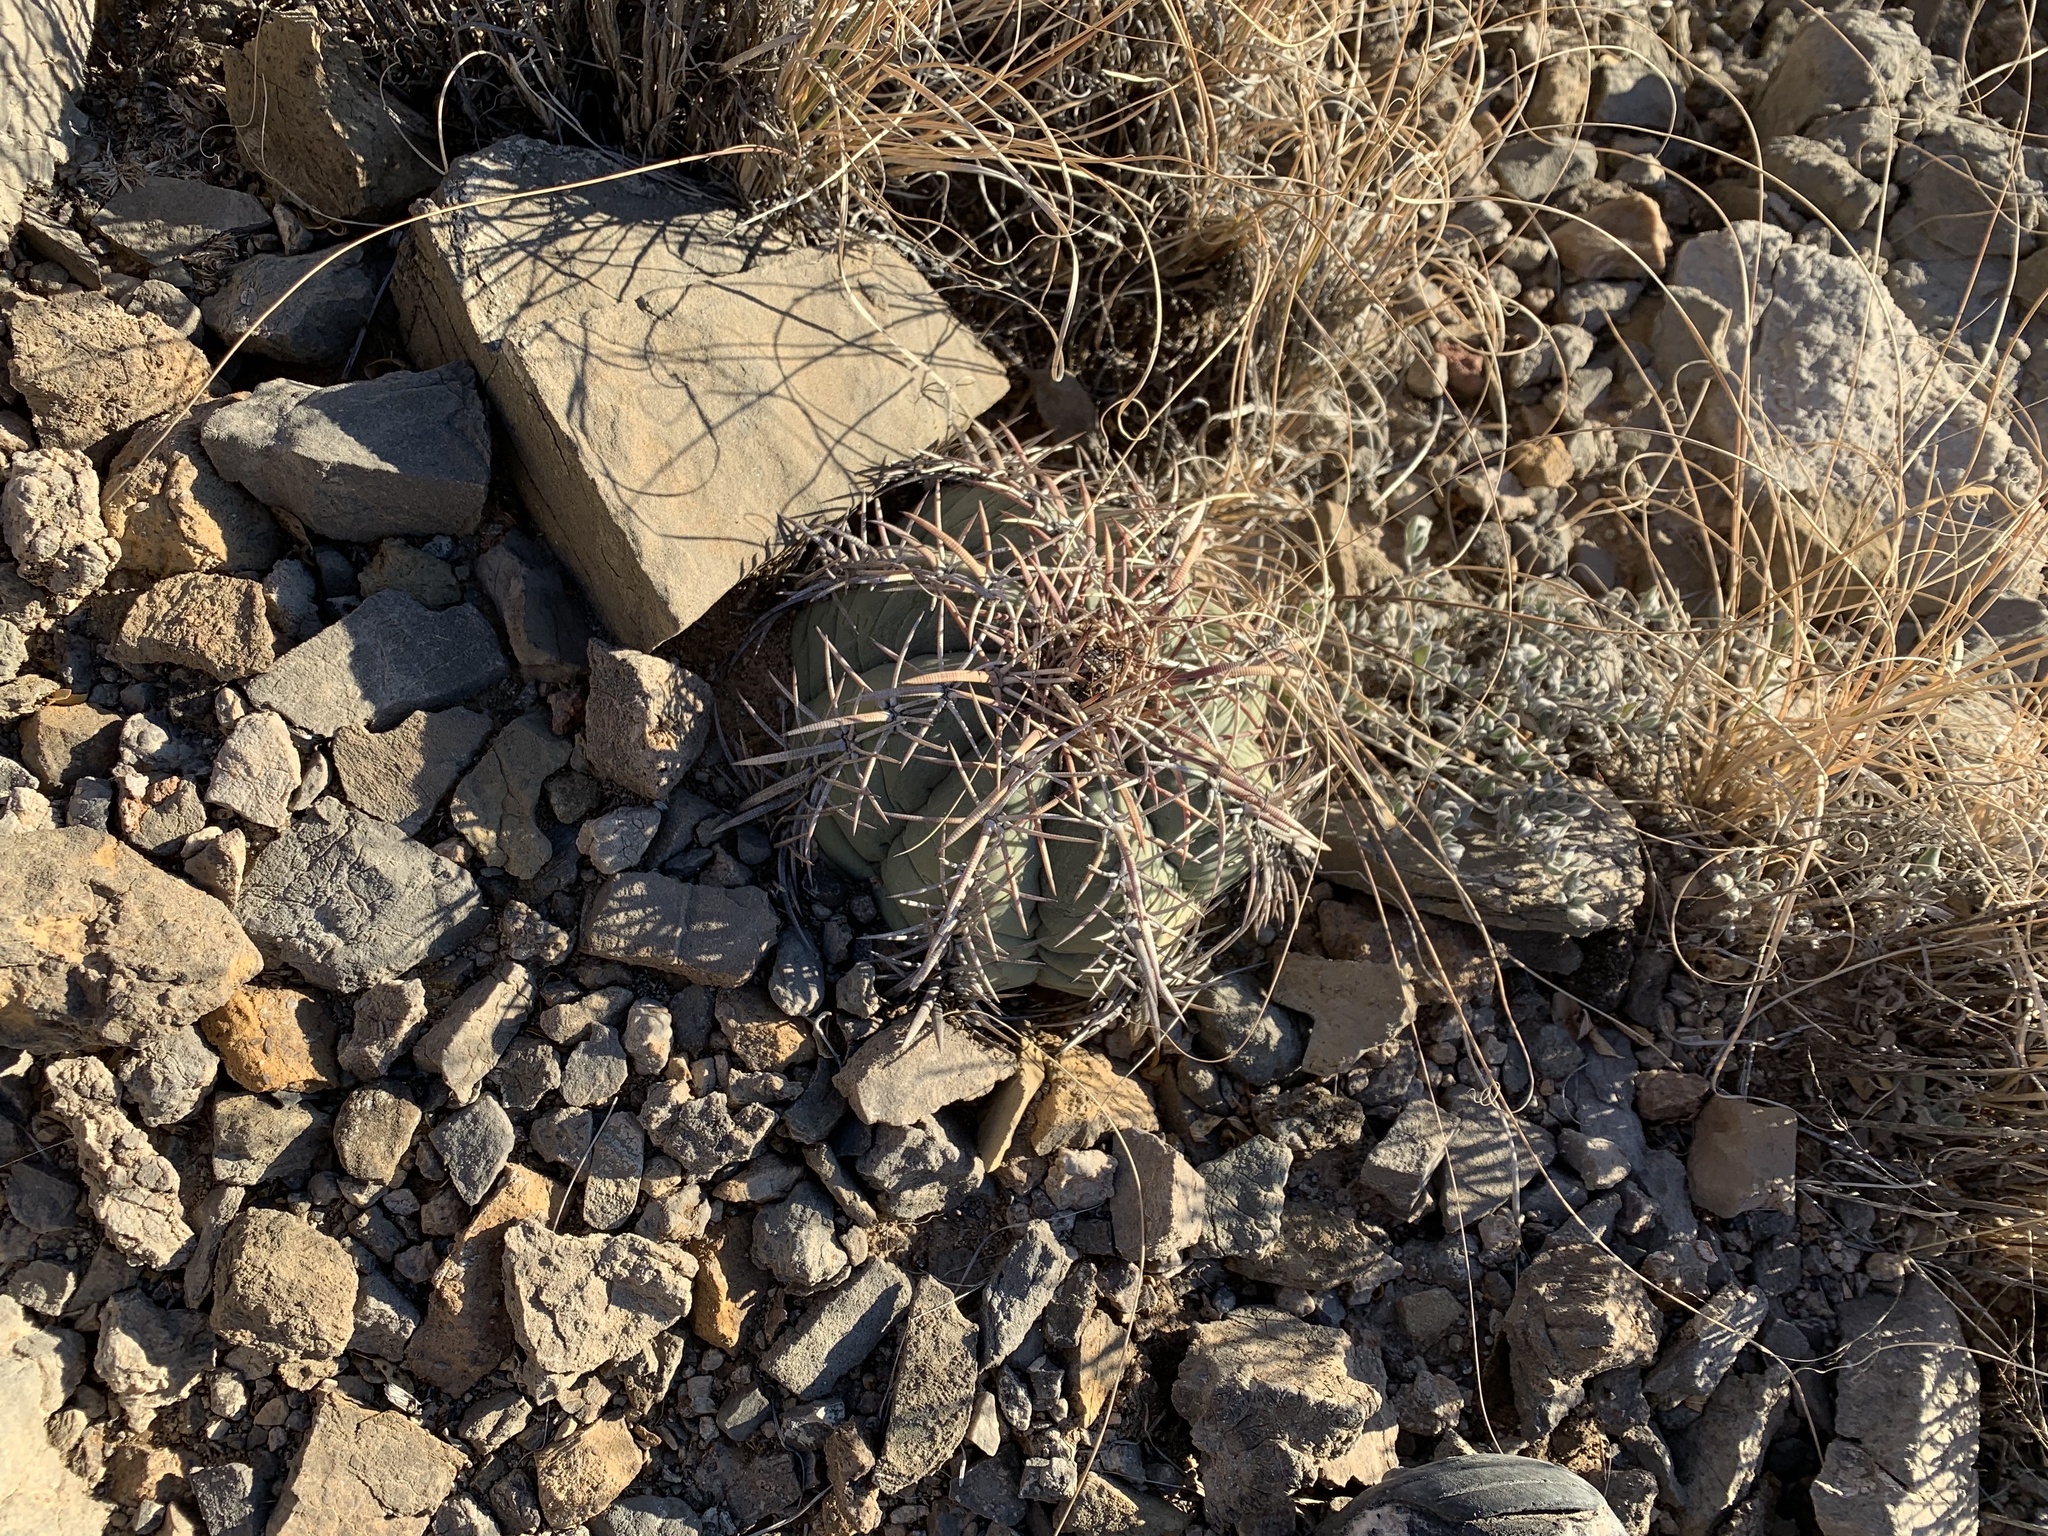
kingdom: Plantae
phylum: Tracheophyta
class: Magnoliopsida
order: Caryophyllales
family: Cactaceae
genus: Echinocactus
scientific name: Echinocactus horizonthalonius
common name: Devilshead
